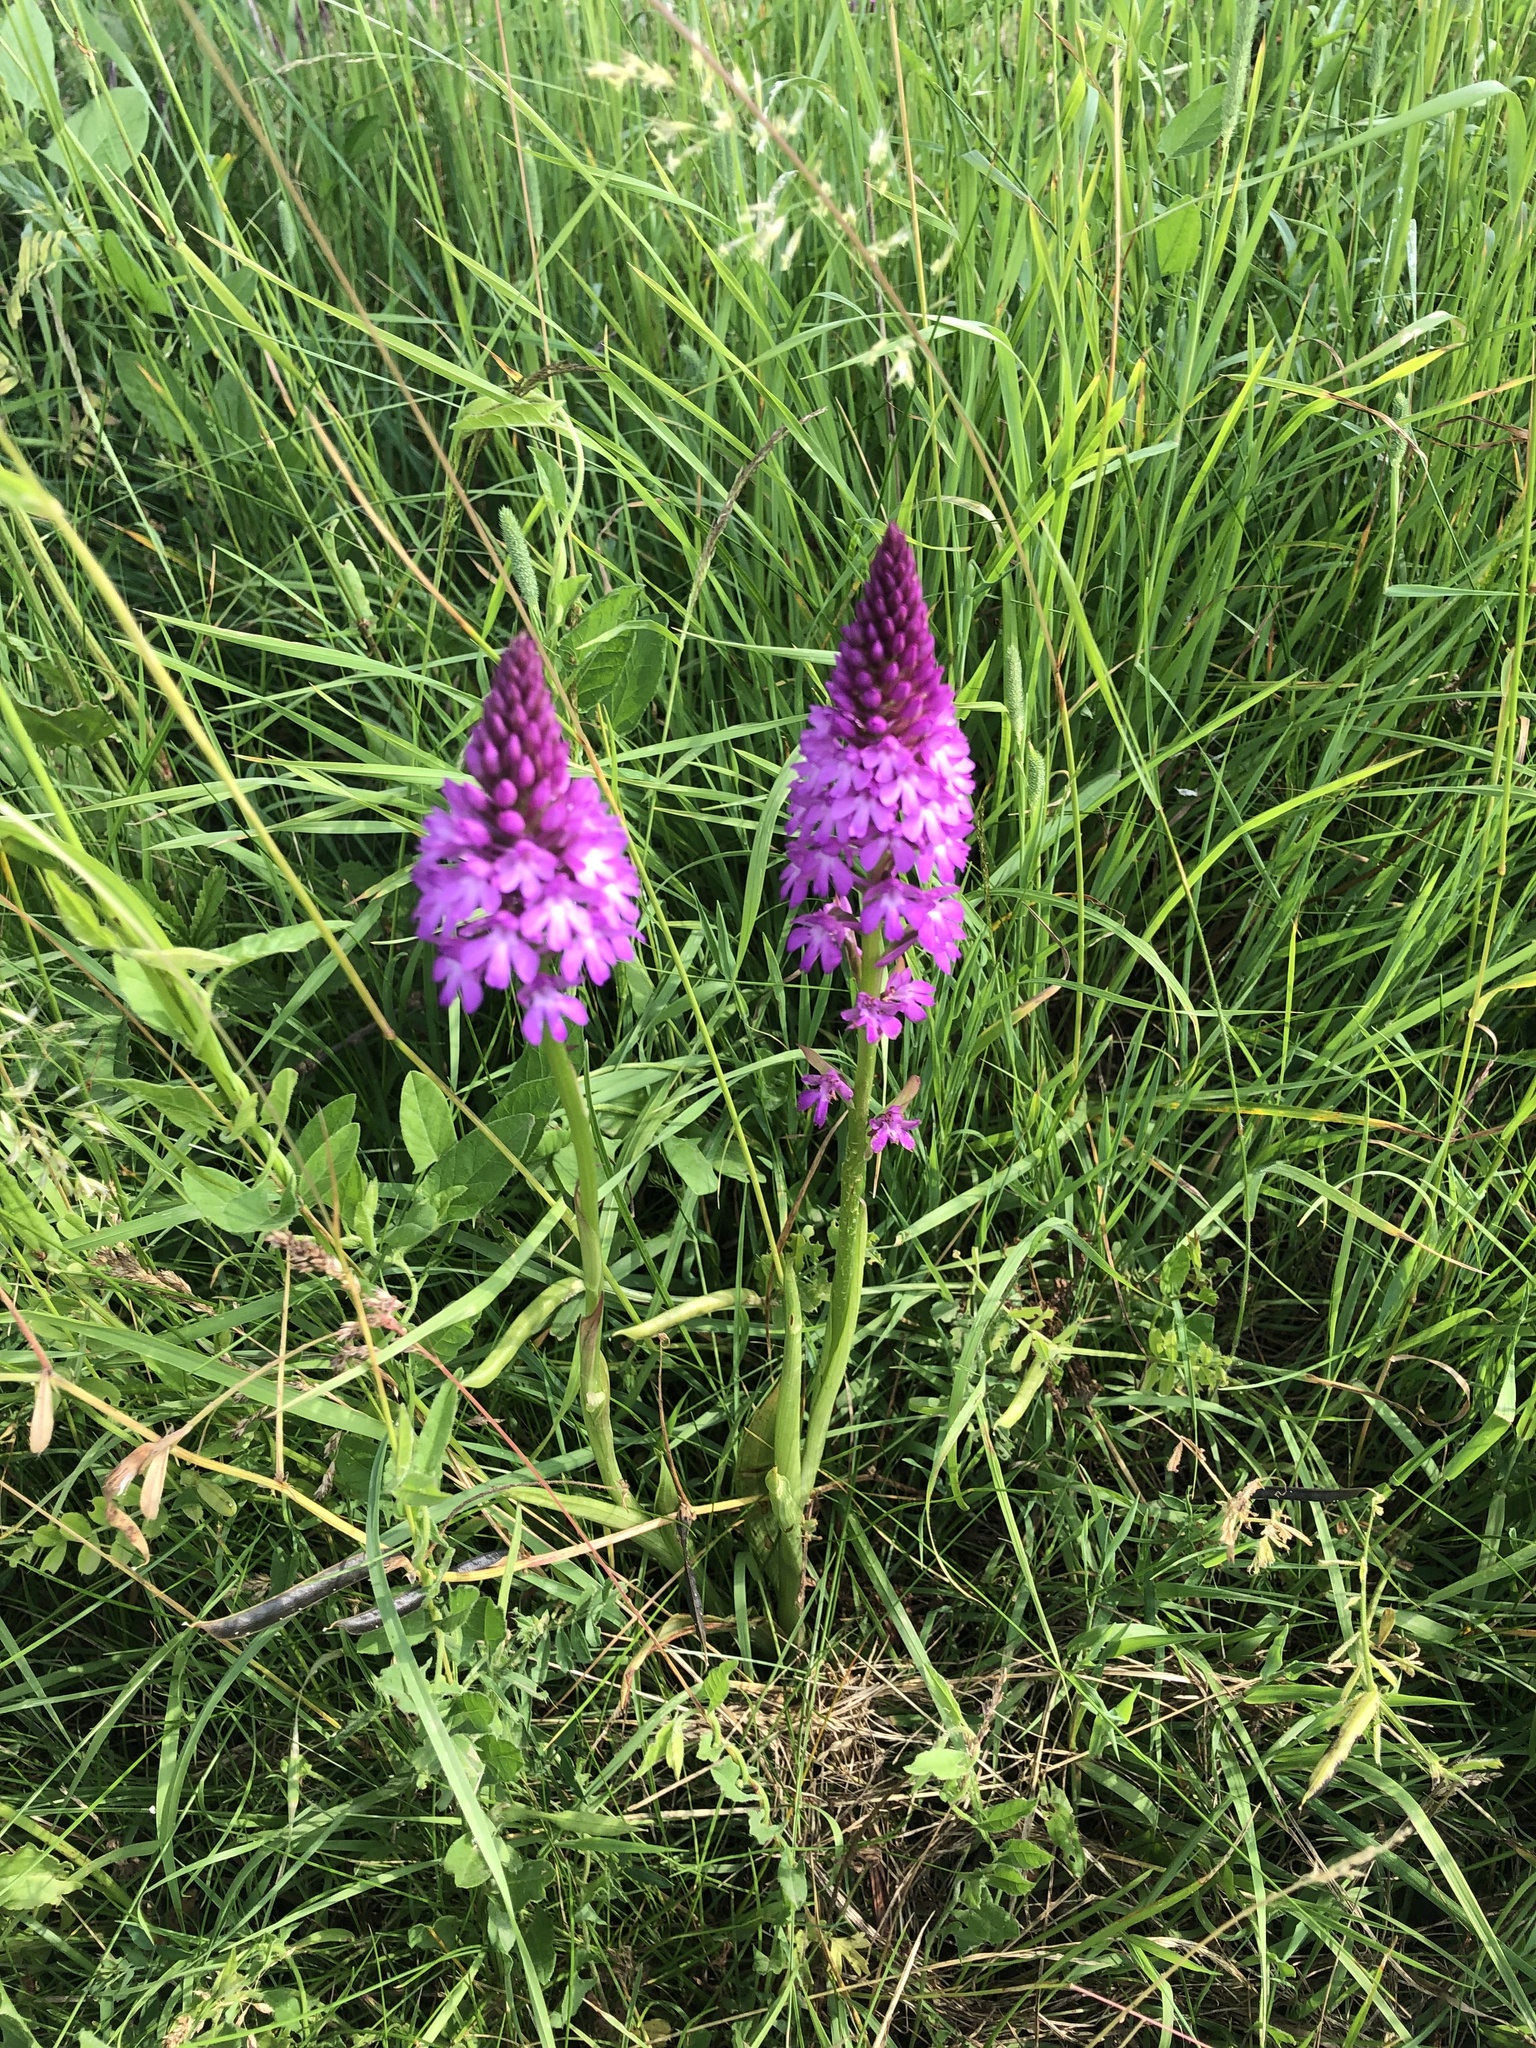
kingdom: Plantae
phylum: Tracheophyta
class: Liliopsida
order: Asparagales
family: Orchidaceae
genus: Anacamptis
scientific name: Anacamptis pyramidalis
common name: Pyramidal orchid
